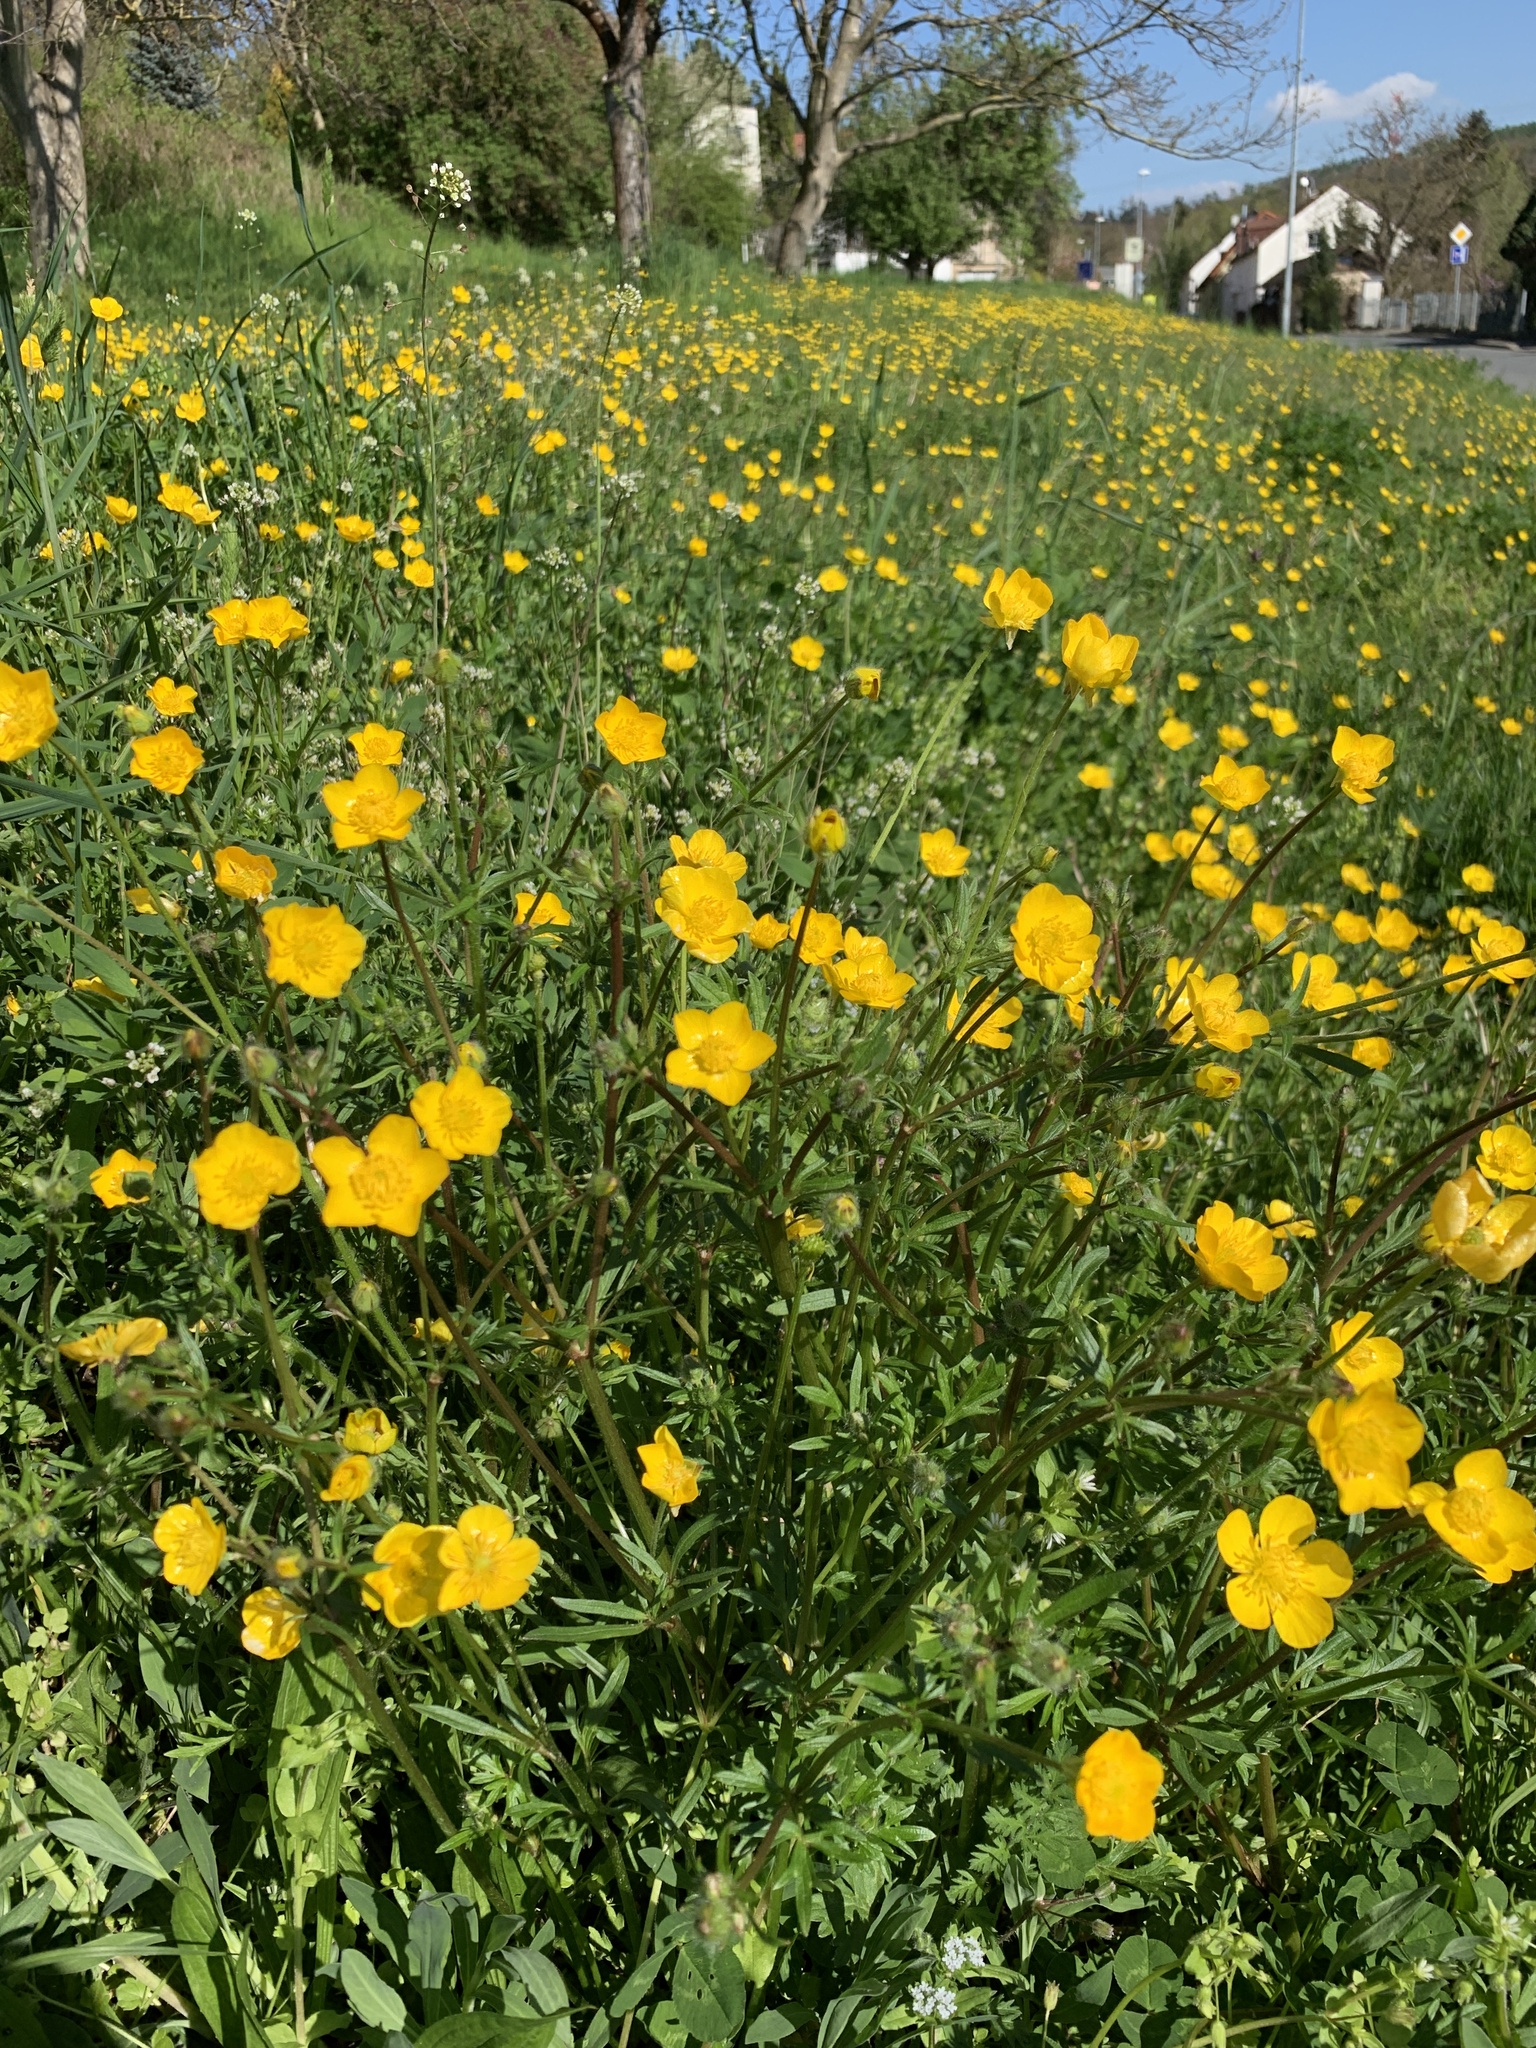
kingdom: Plantae
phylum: Tracheophyta
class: Magnoliopsida
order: Ranunculales
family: Ranunculaceae
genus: Ranunculus
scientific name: Ranunculus bulbosus
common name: Bulbous buttercup
